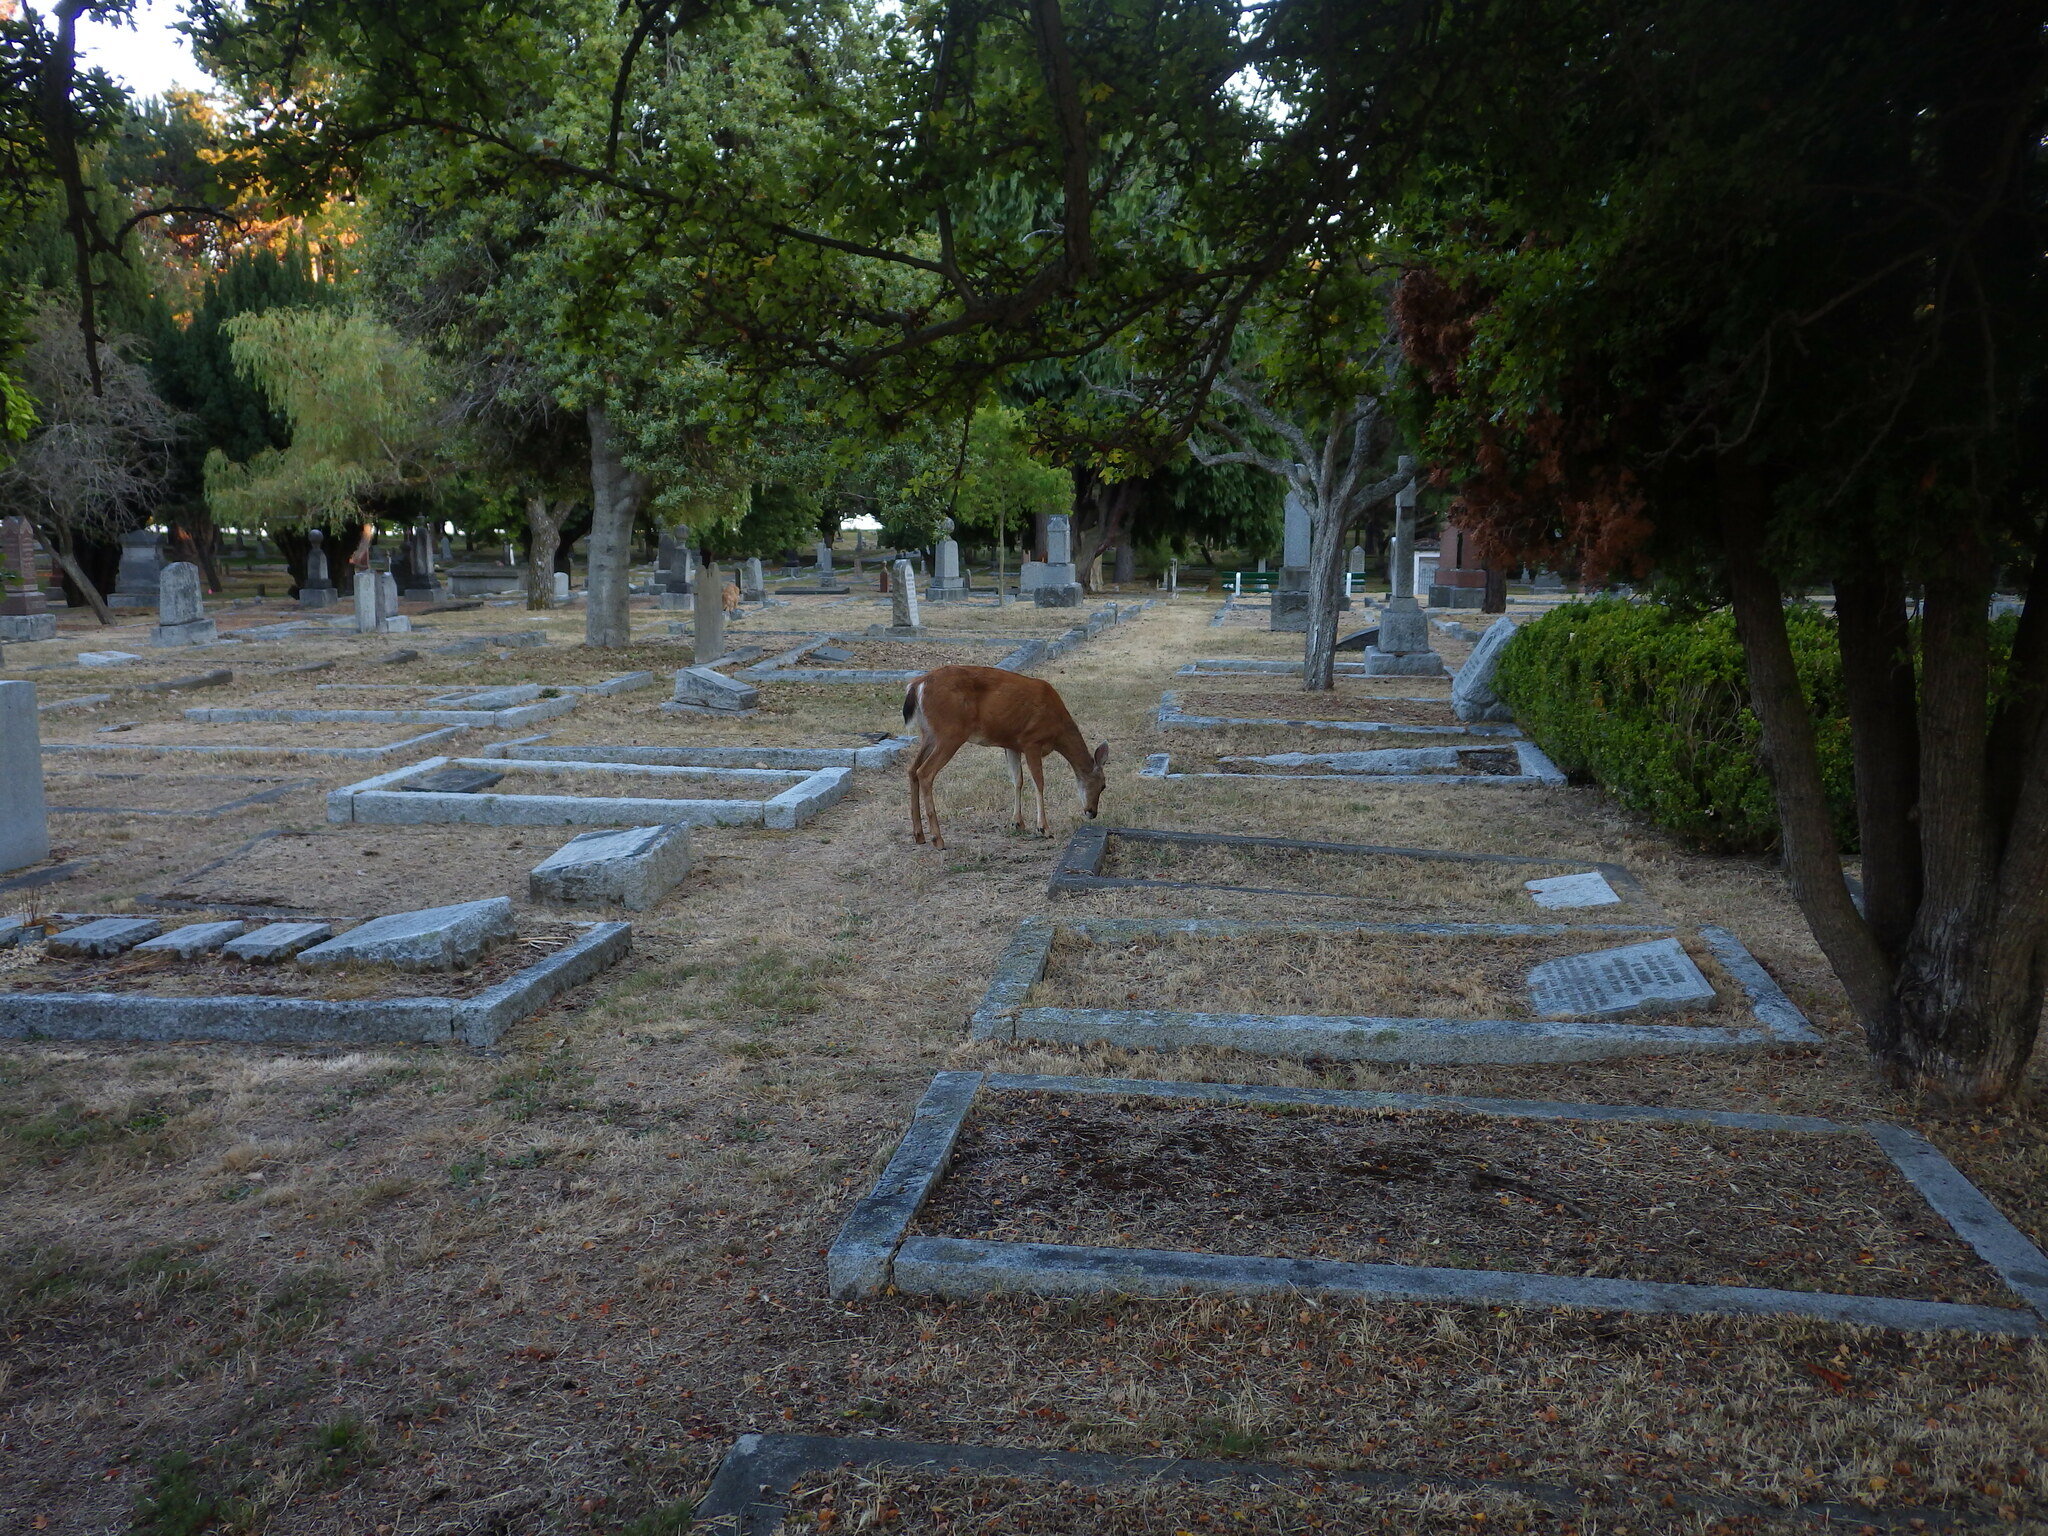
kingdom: Animalia
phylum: Chordata
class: Mammalia
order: Artiodactyla
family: Cervidae
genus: Odocoileus
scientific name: Odocoileus hemionus
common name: Mule deer
